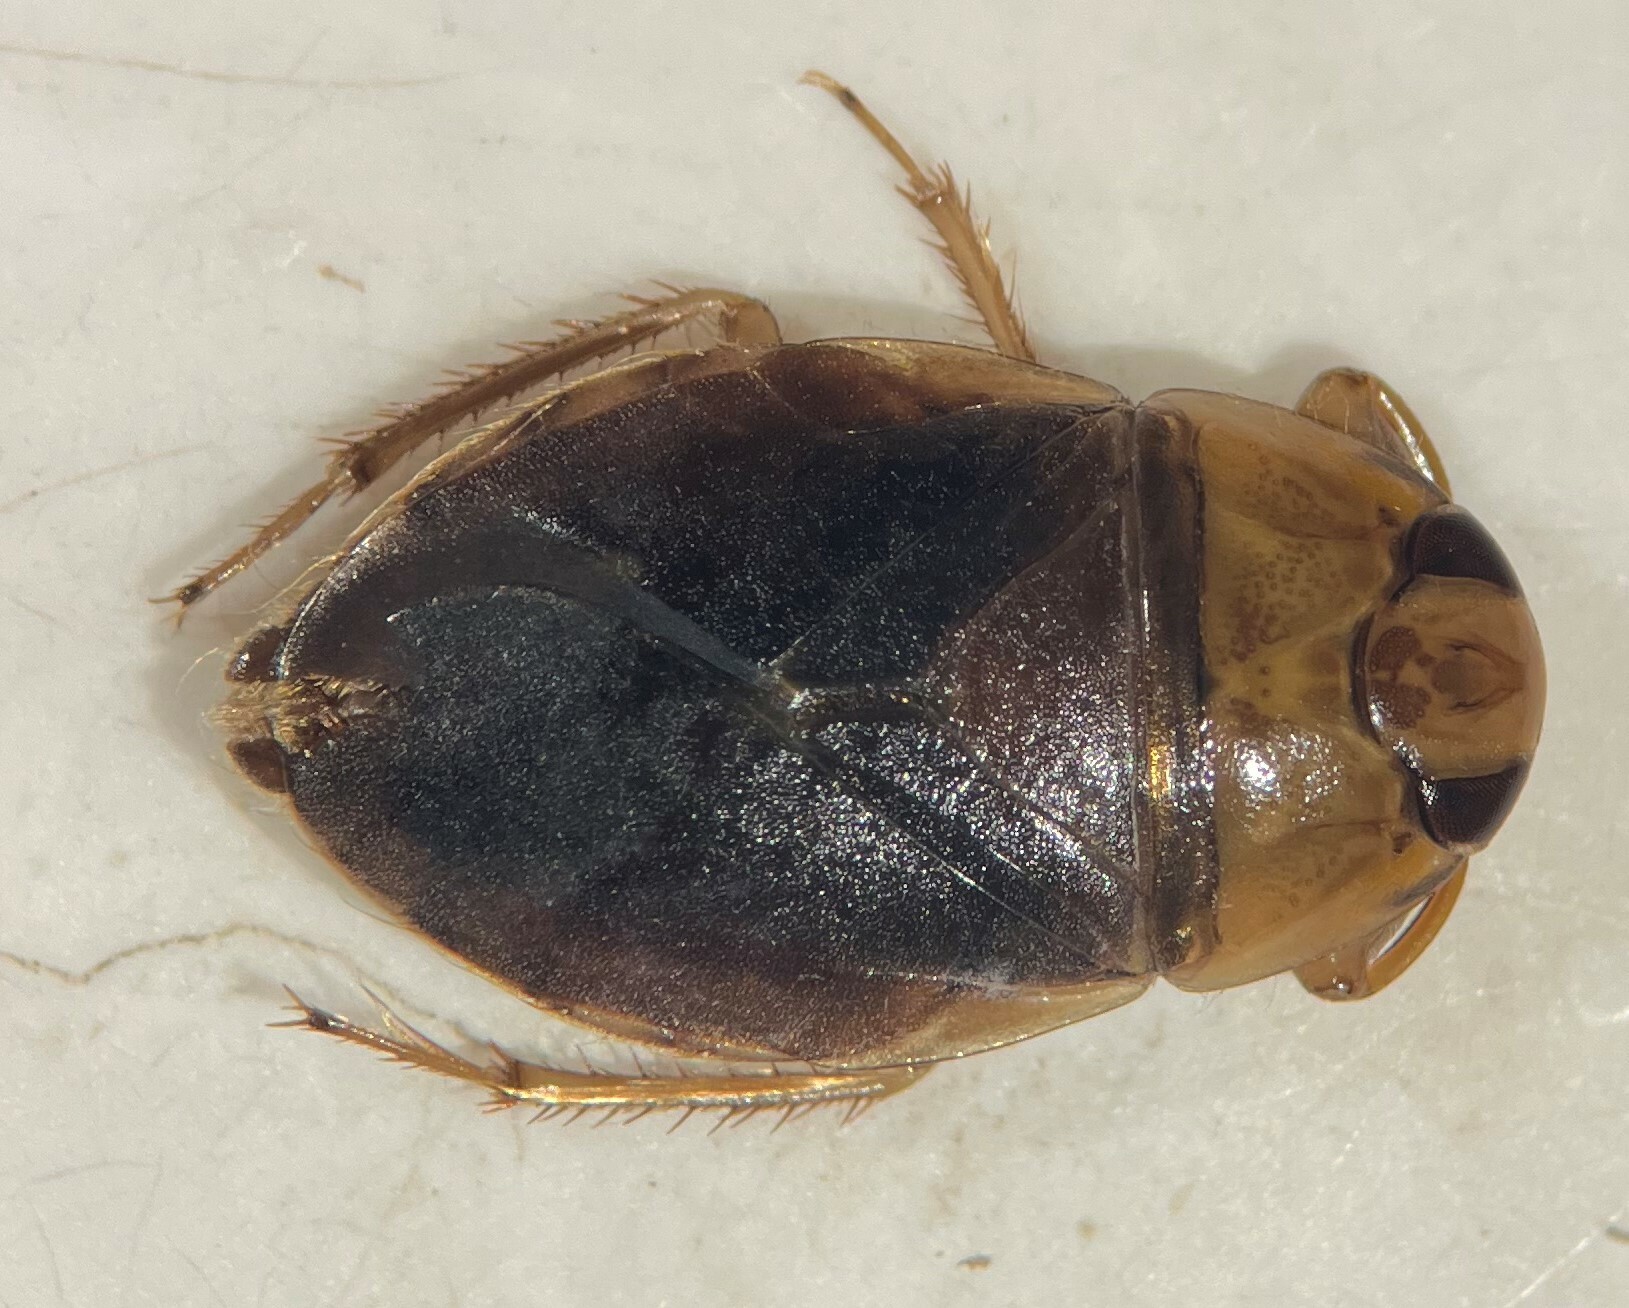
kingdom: Animalia
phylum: Arthropoda
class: Insecta
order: Hemiptera
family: Naucoridae
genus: Ambrysus
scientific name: Ambrysus pulchellus
